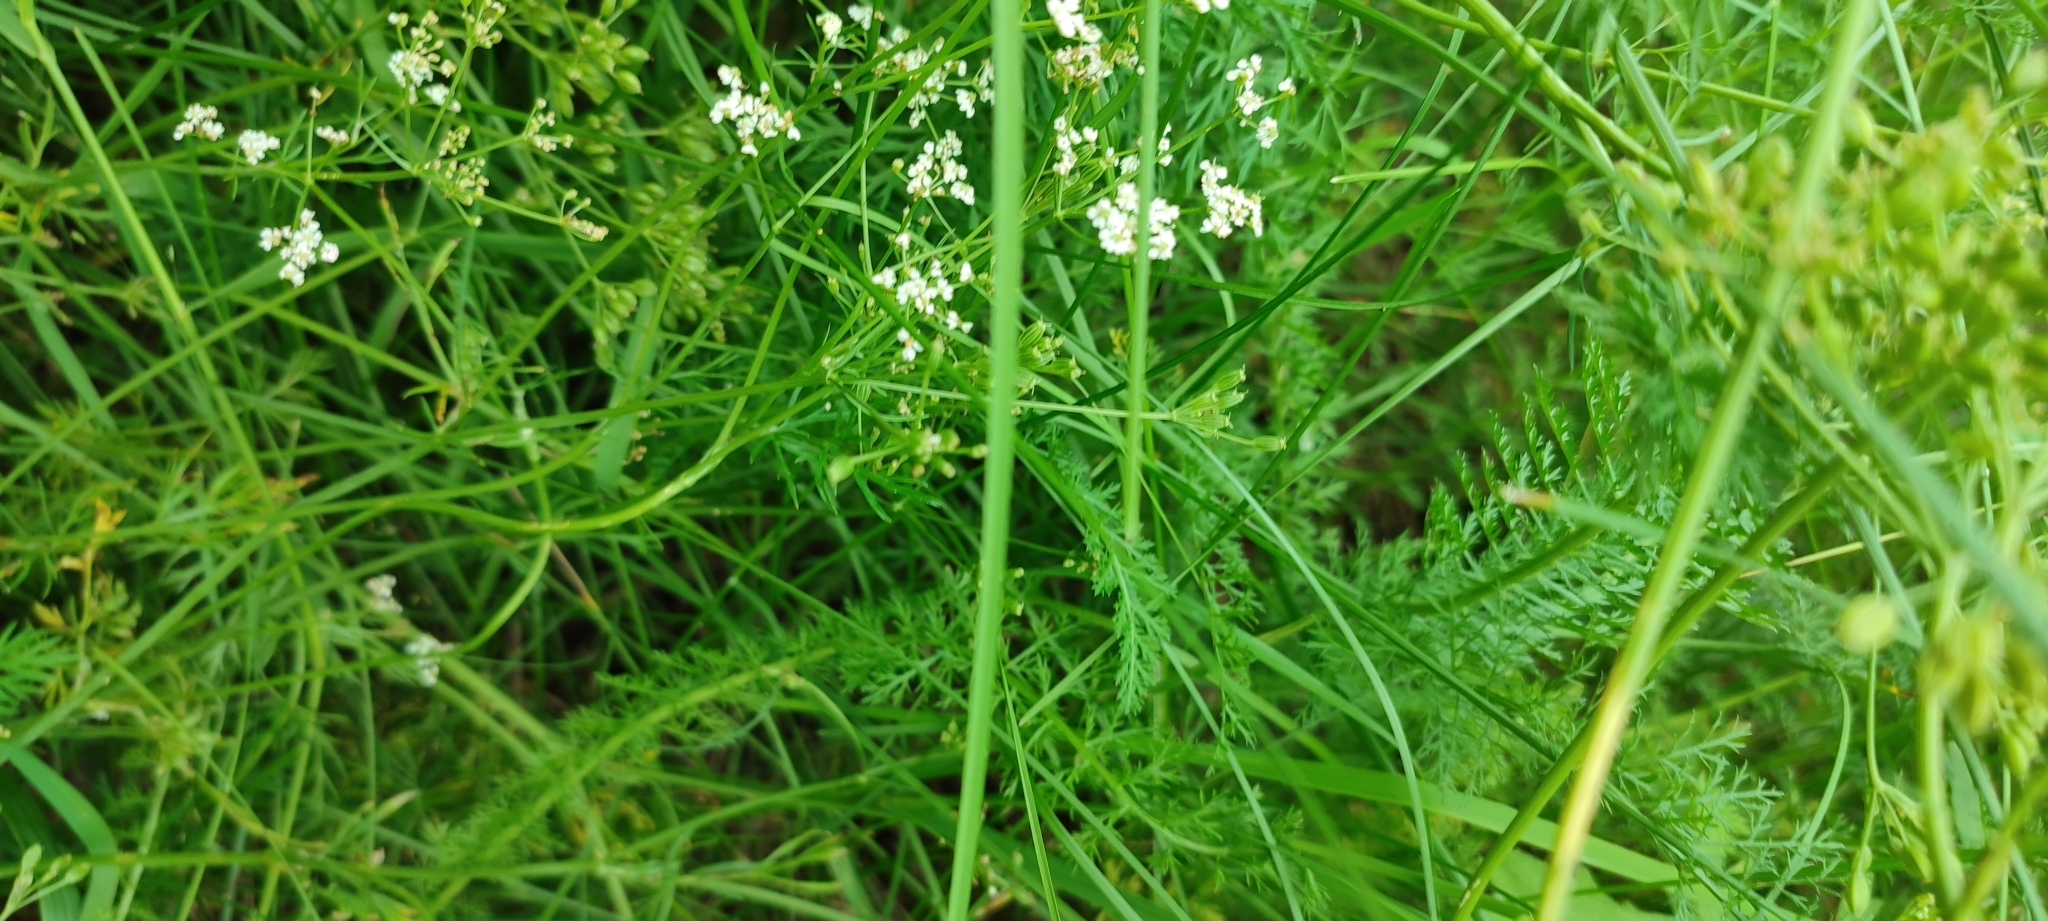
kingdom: Plantae
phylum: Tracheophyta
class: Magnoliopsida
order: Apiales
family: Apiaceae
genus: Carum
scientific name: Carum carvi
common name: Caraway
